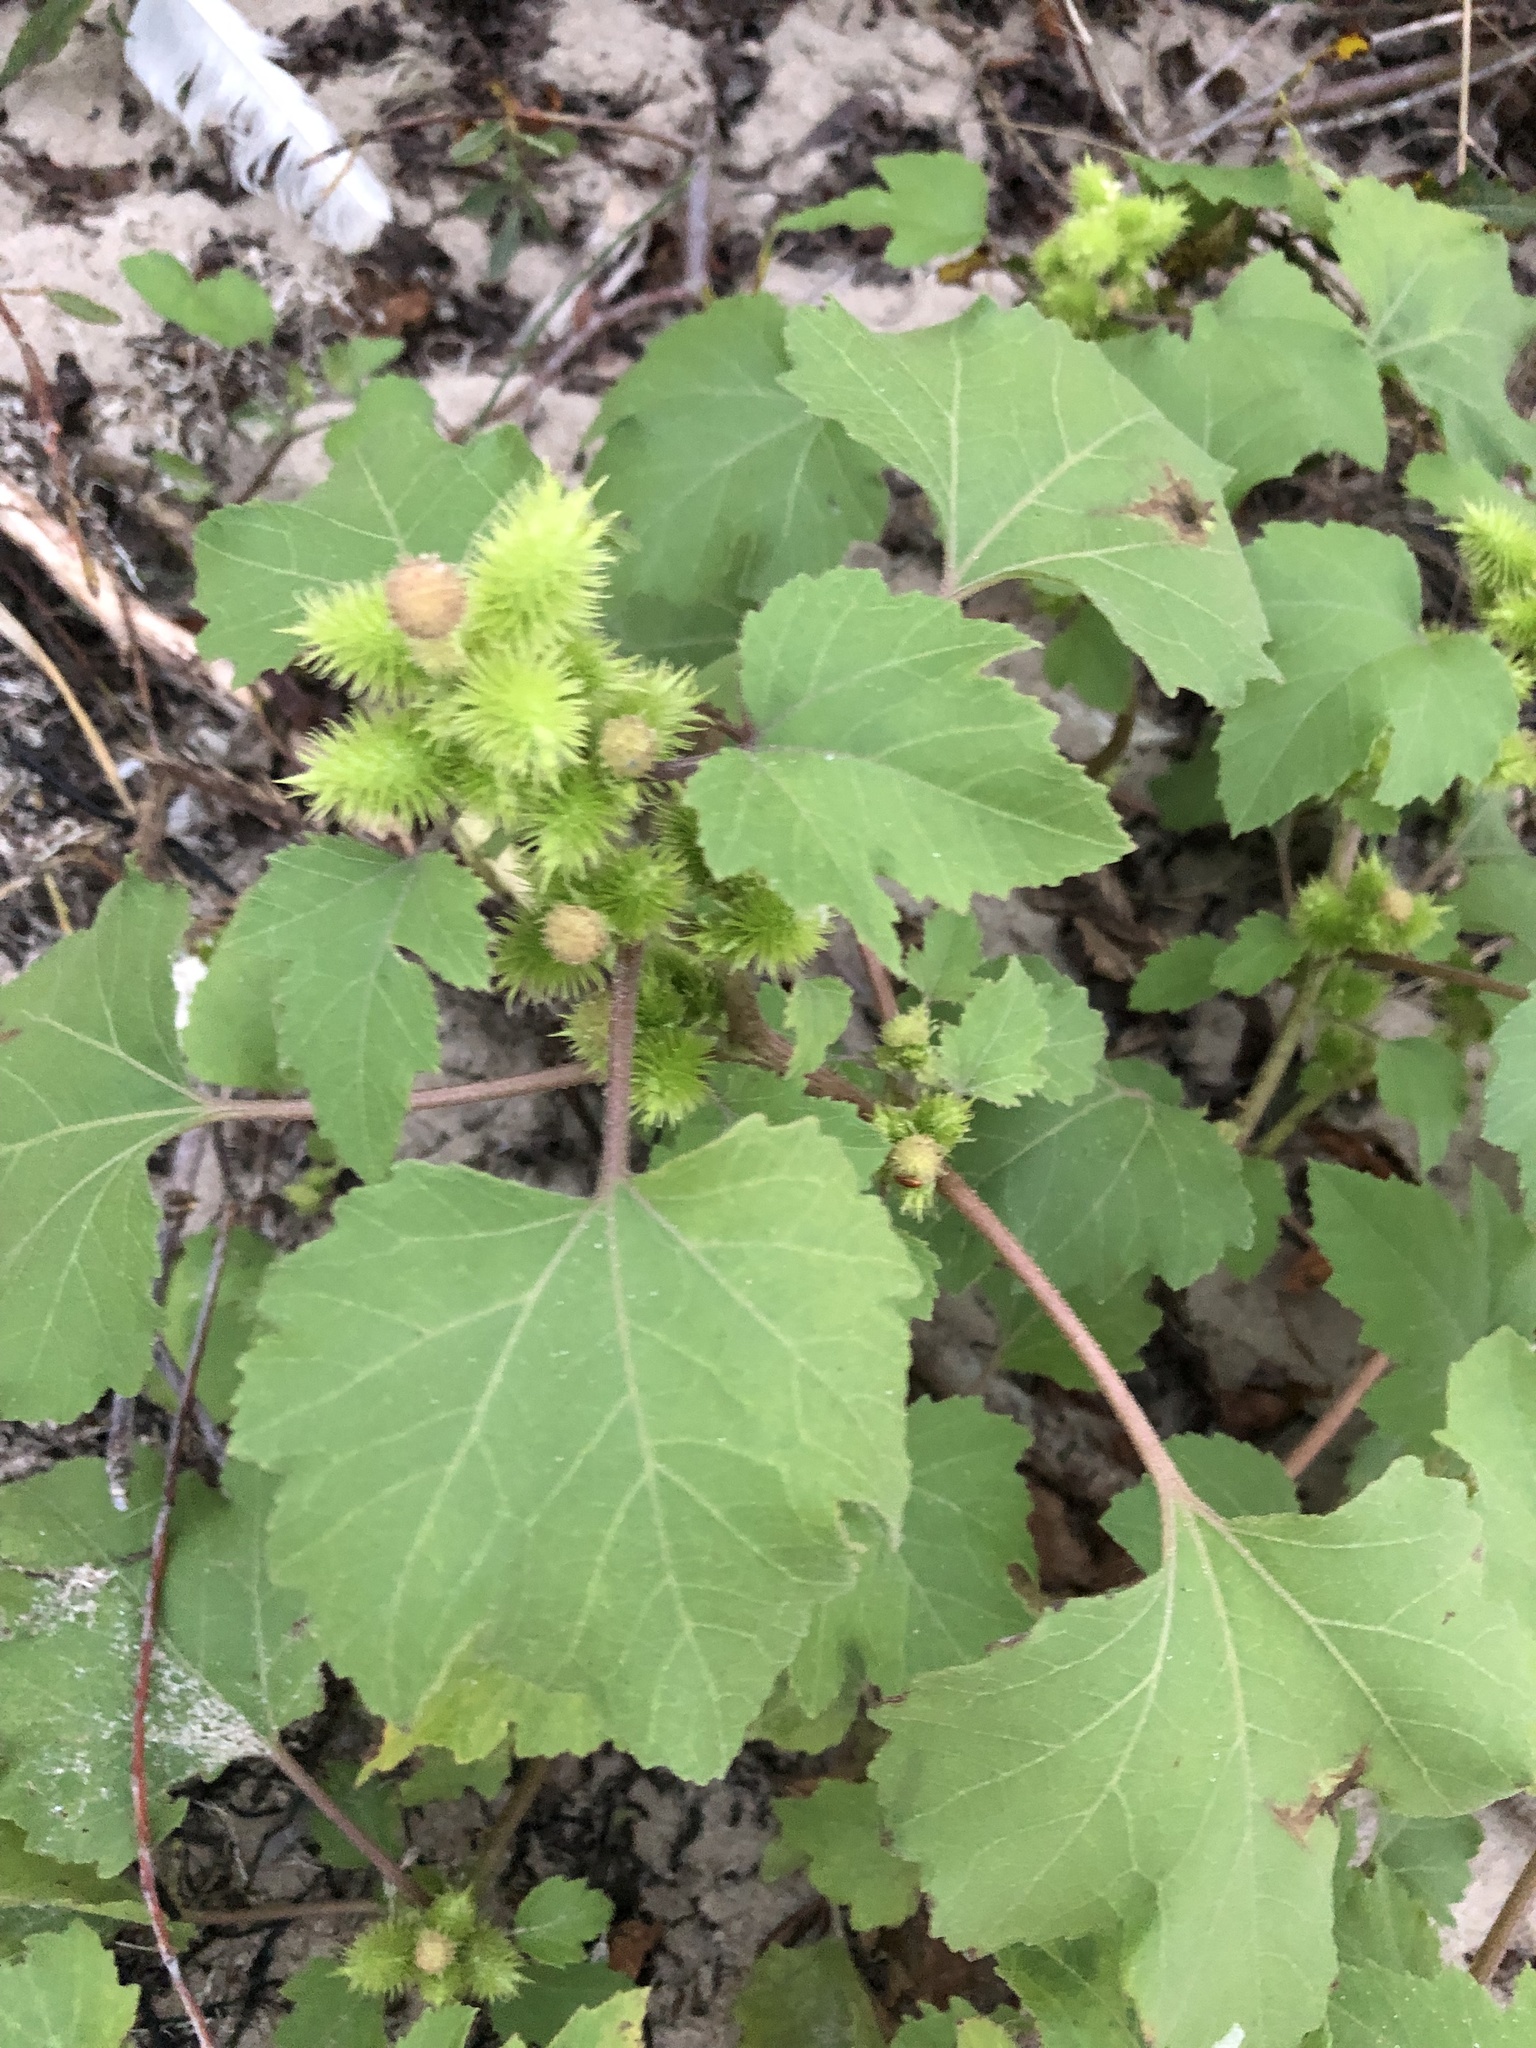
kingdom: Plantae
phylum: Tracheophyta
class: Magnoliopsida
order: Asterales
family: Asteraceae
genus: Xanthium
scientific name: Xanthium strumarium
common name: Rough cocklebur
